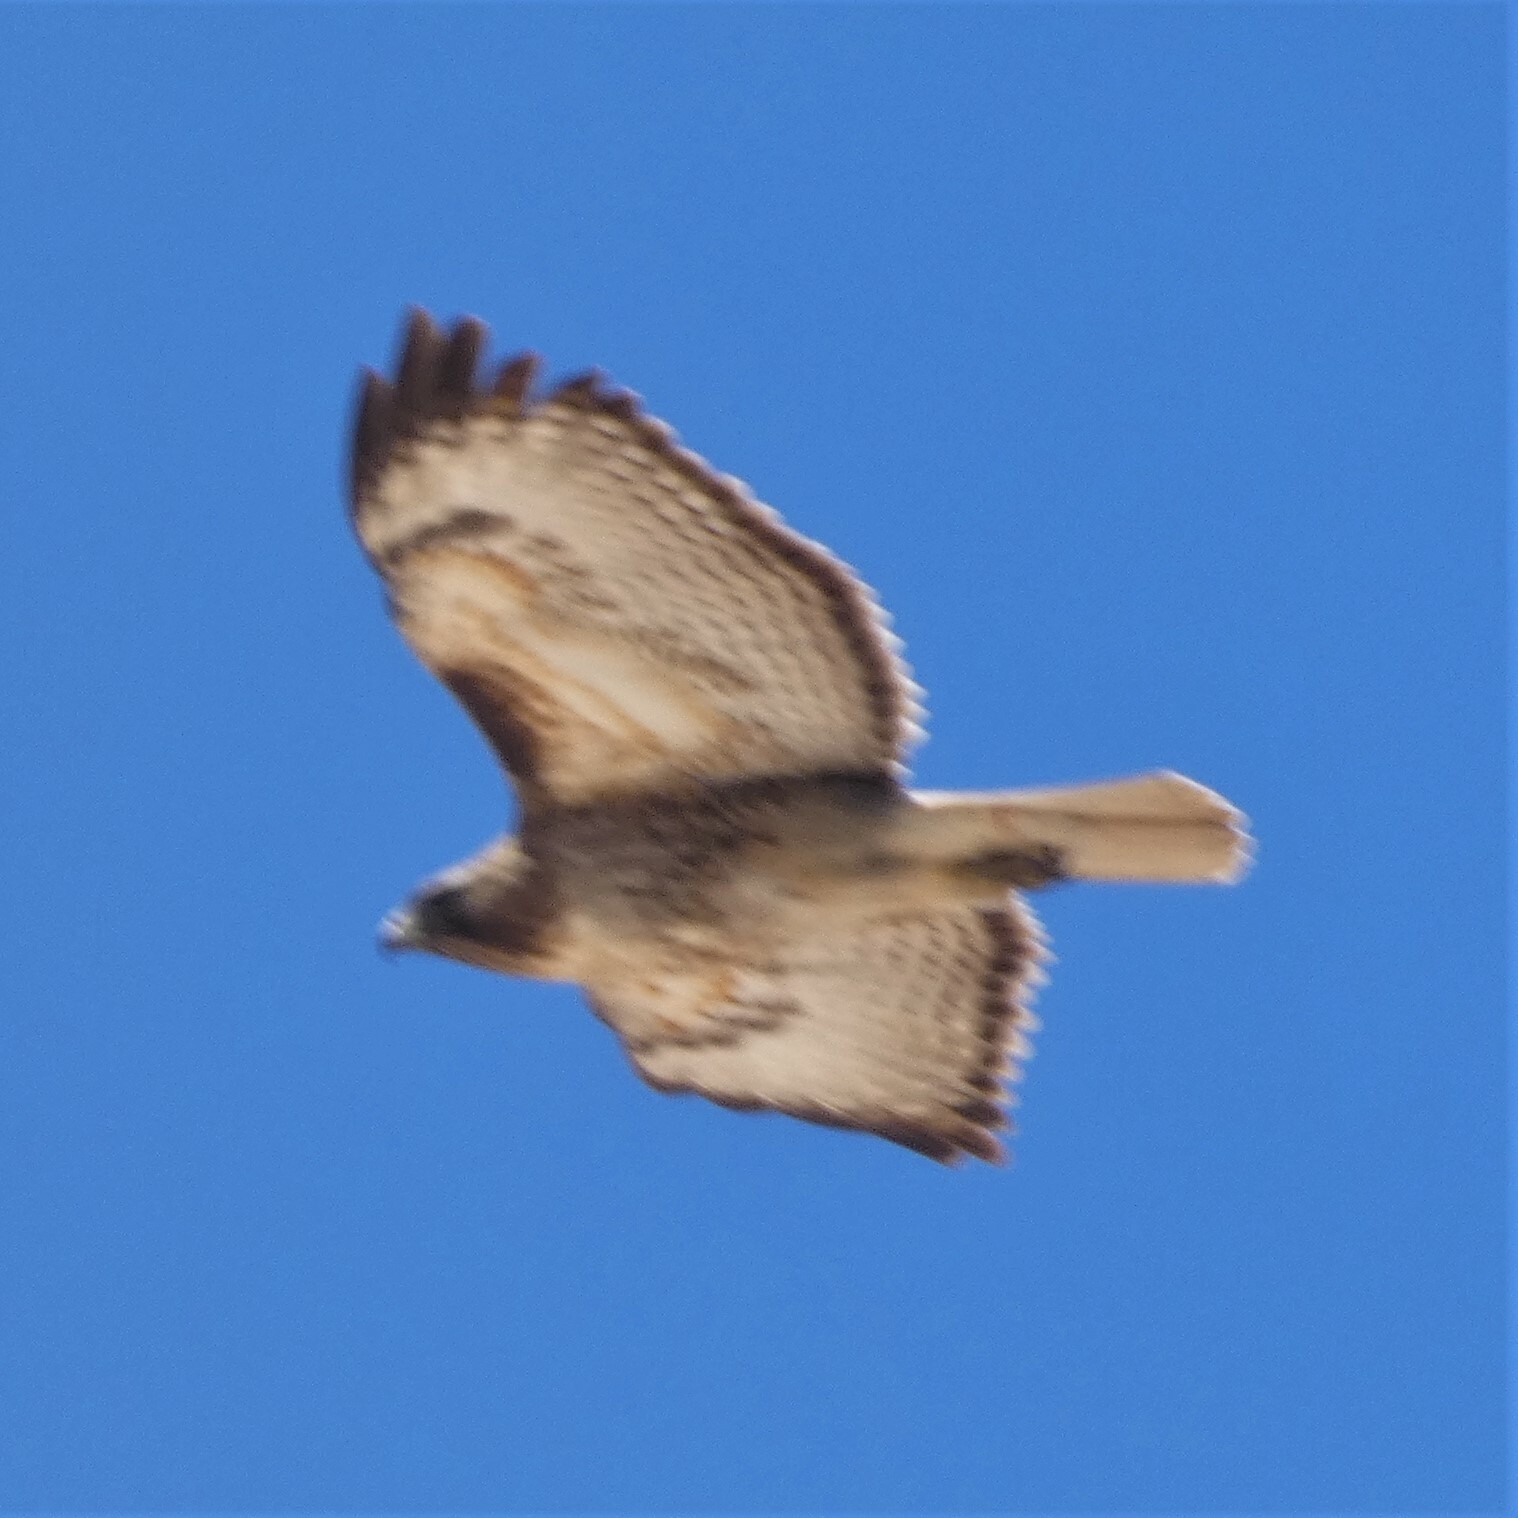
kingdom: Animalia
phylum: Chordata
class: Aves
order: Accipitriformes
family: Accipitridae
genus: Buteo
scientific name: Buteo jamaicensis
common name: Red-tailed hawk
